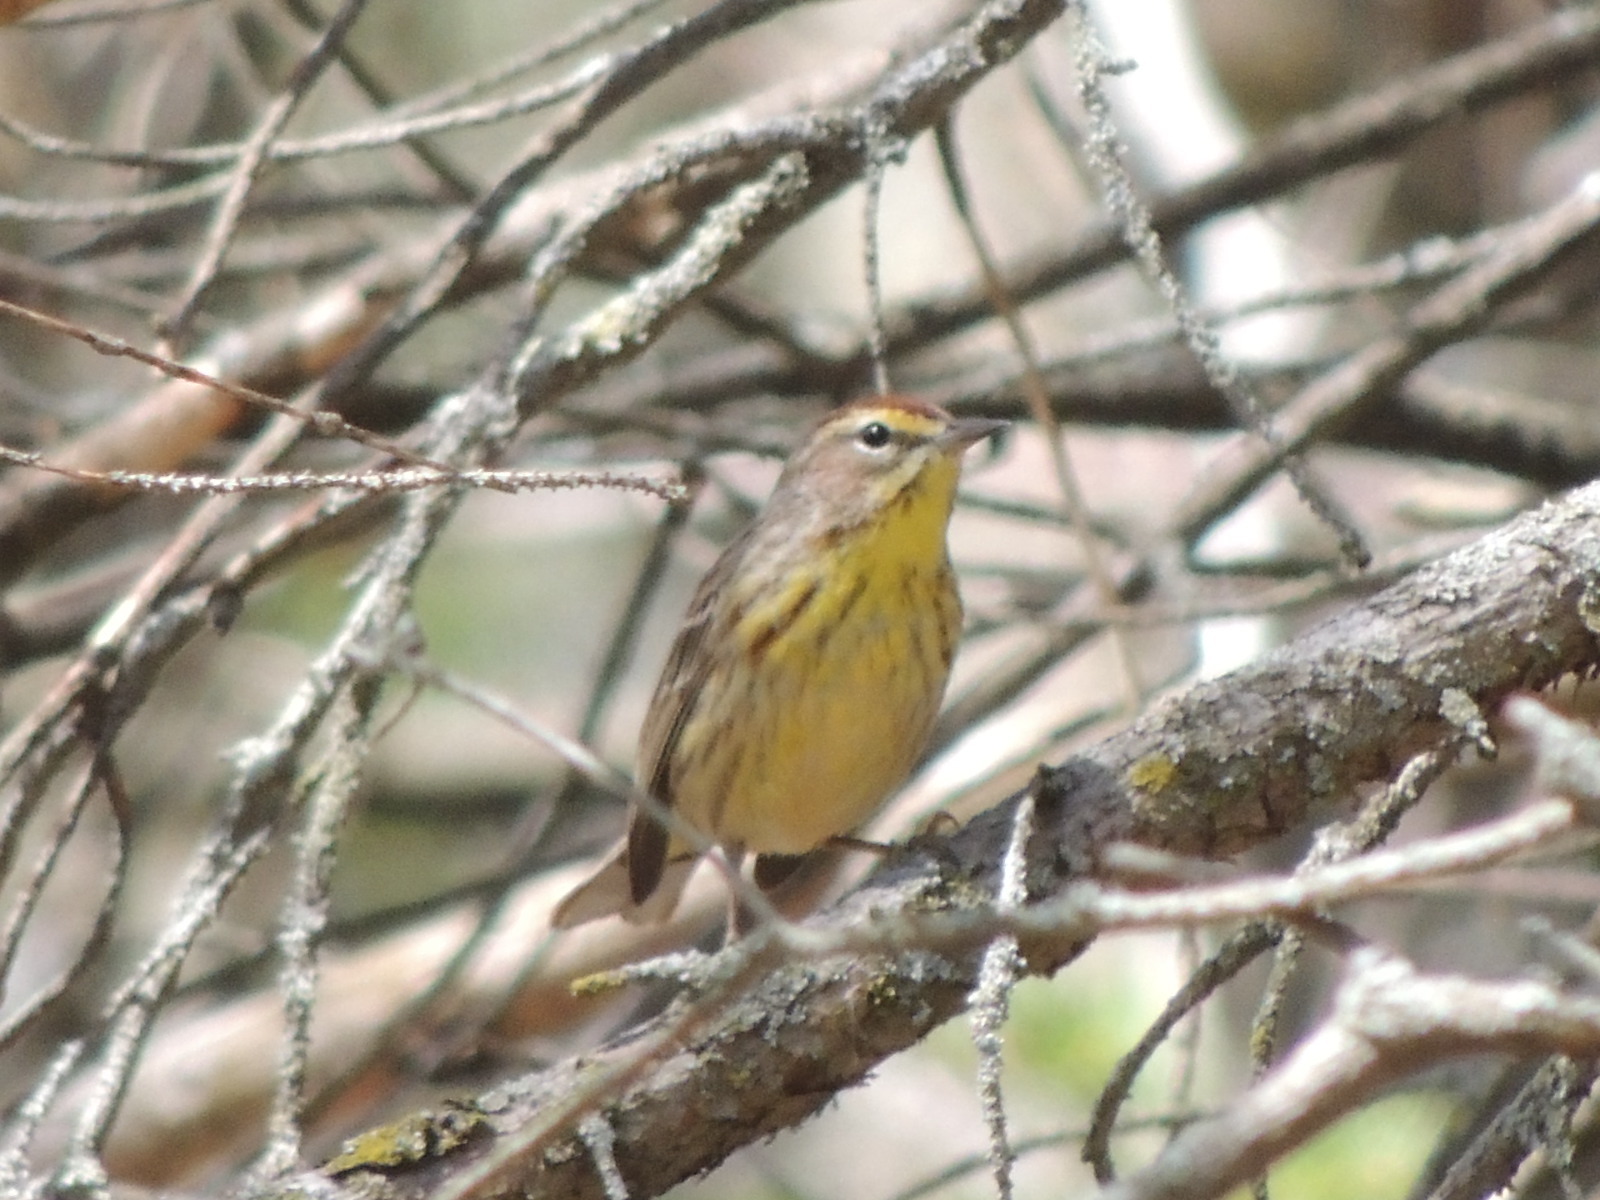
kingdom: Animalia
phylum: Chordata
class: Aves
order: Passeriformes
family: Parulidae
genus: Setophaga
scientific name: Setophaga palmarum
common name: Palm warbler
